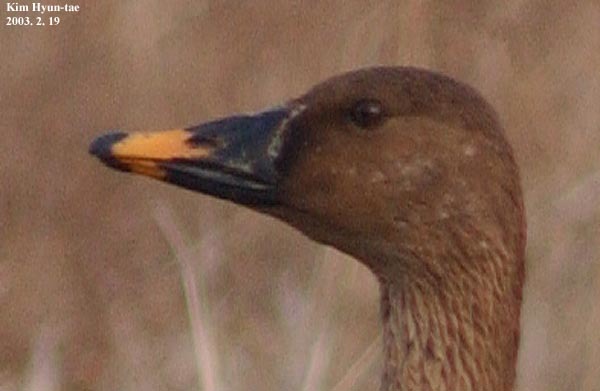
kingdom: Animalia
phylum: Chordata
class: Aves
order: Anseriformes
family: Anatidae
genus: Anser
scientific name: Anser serrirostris
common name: Tundra bean goose
